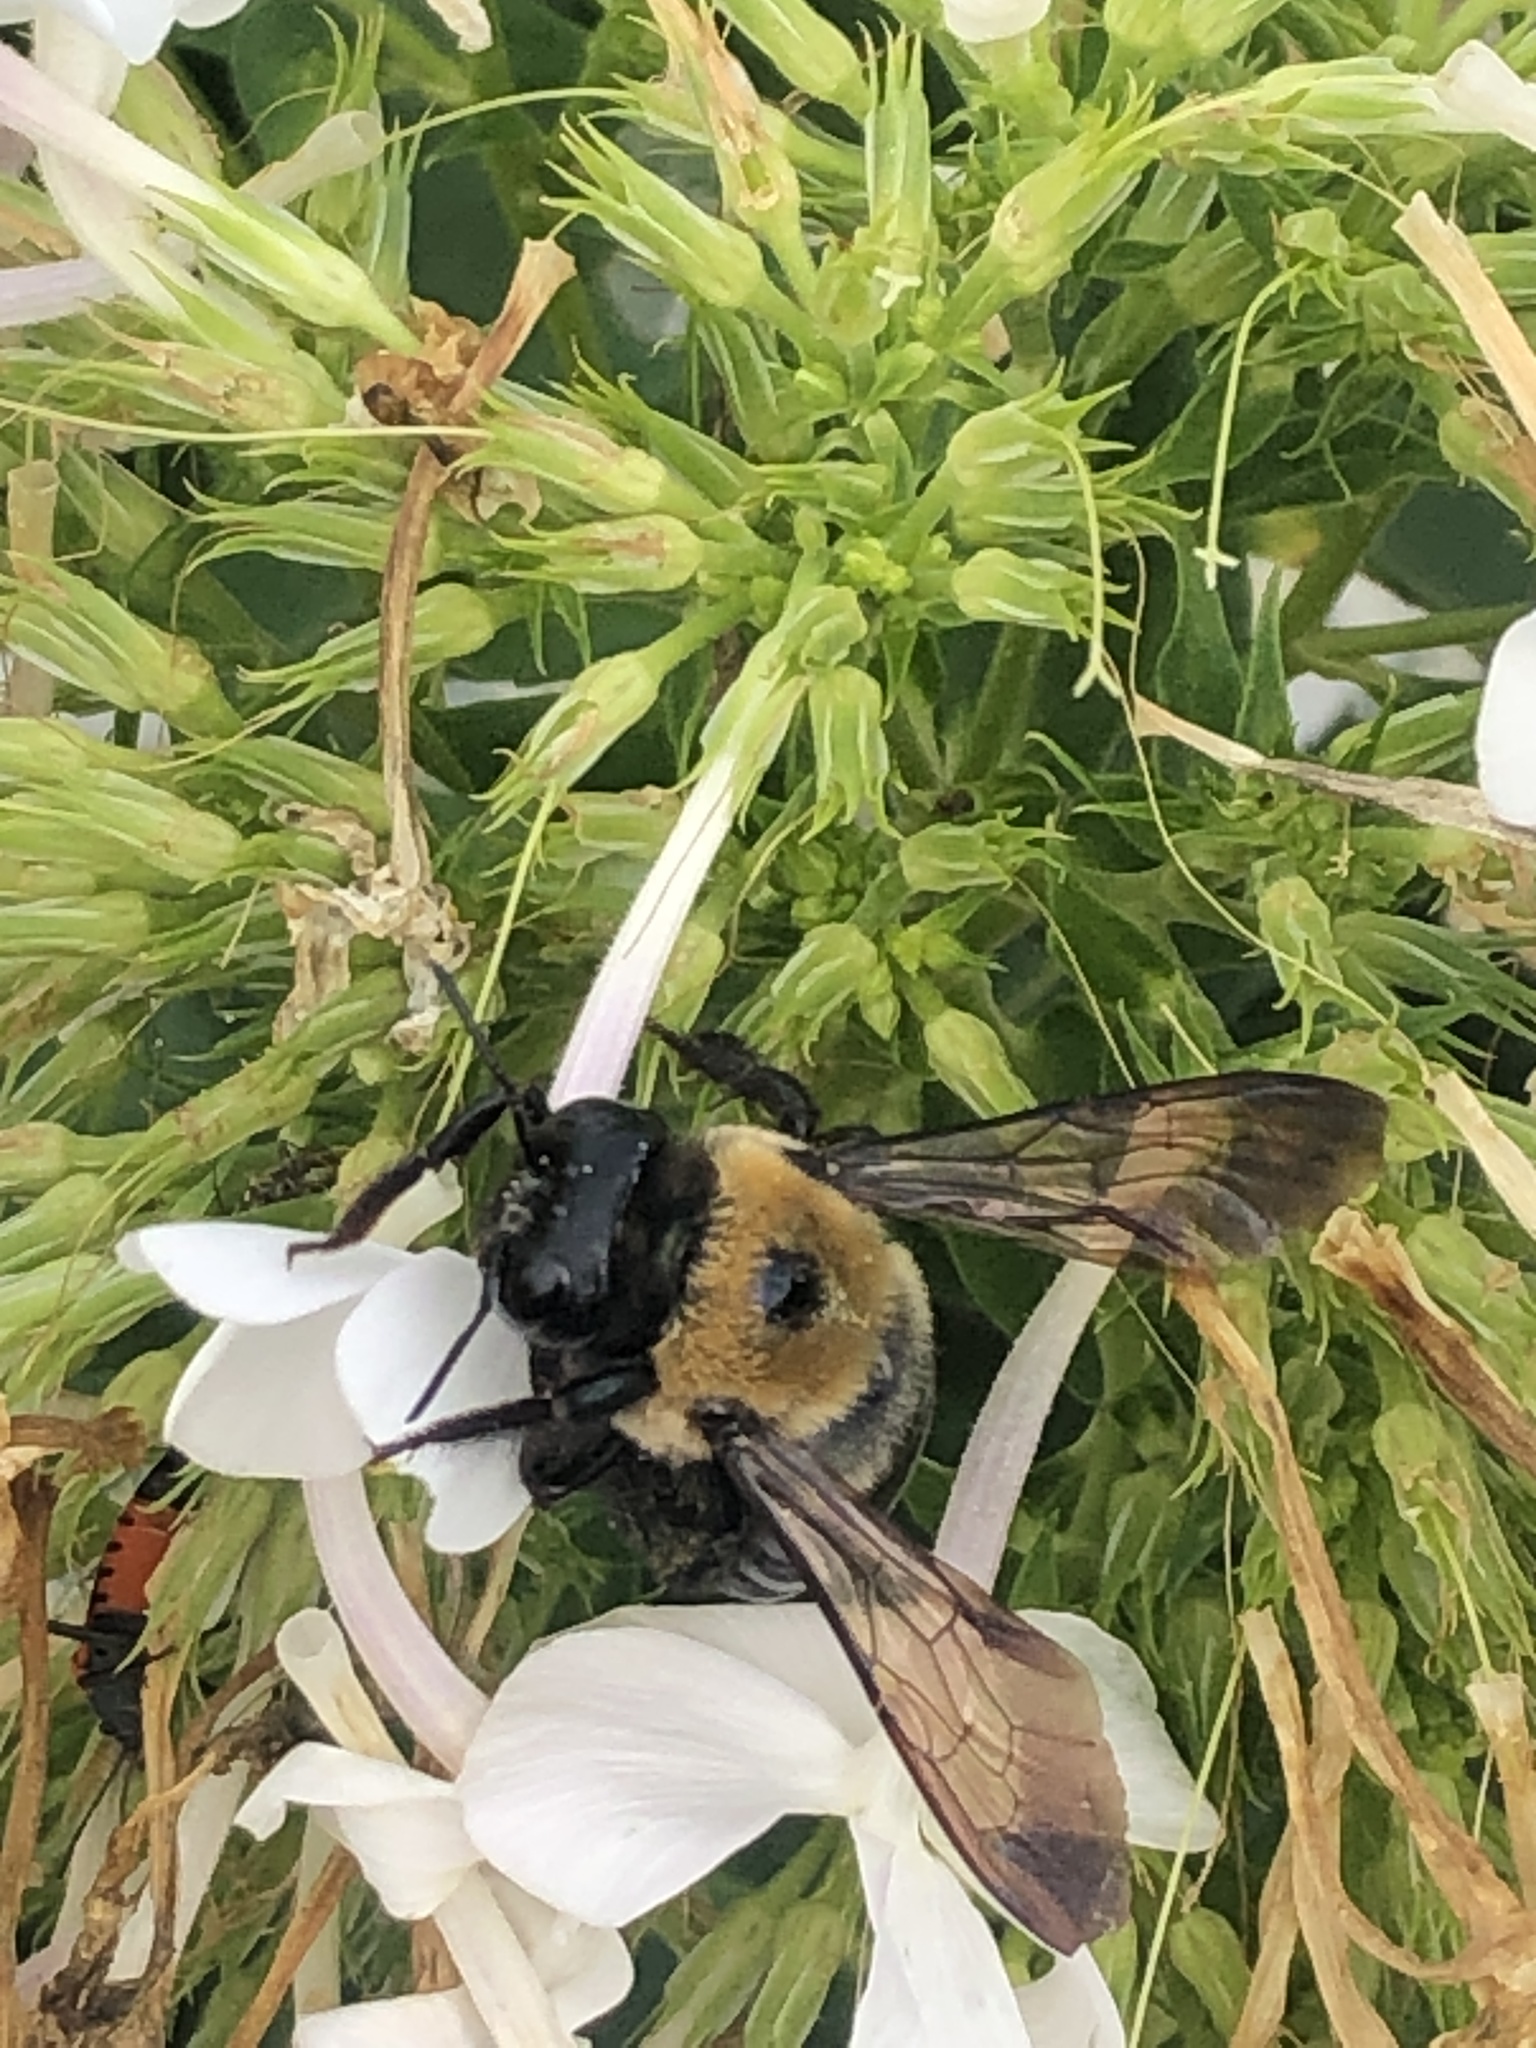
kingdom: Animalia
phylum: Arthropoda
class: Insecta
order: Hymenoptera
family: Apidae
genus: Xylocopa
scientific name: Xylocopa virginica
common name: Carpenter bee
